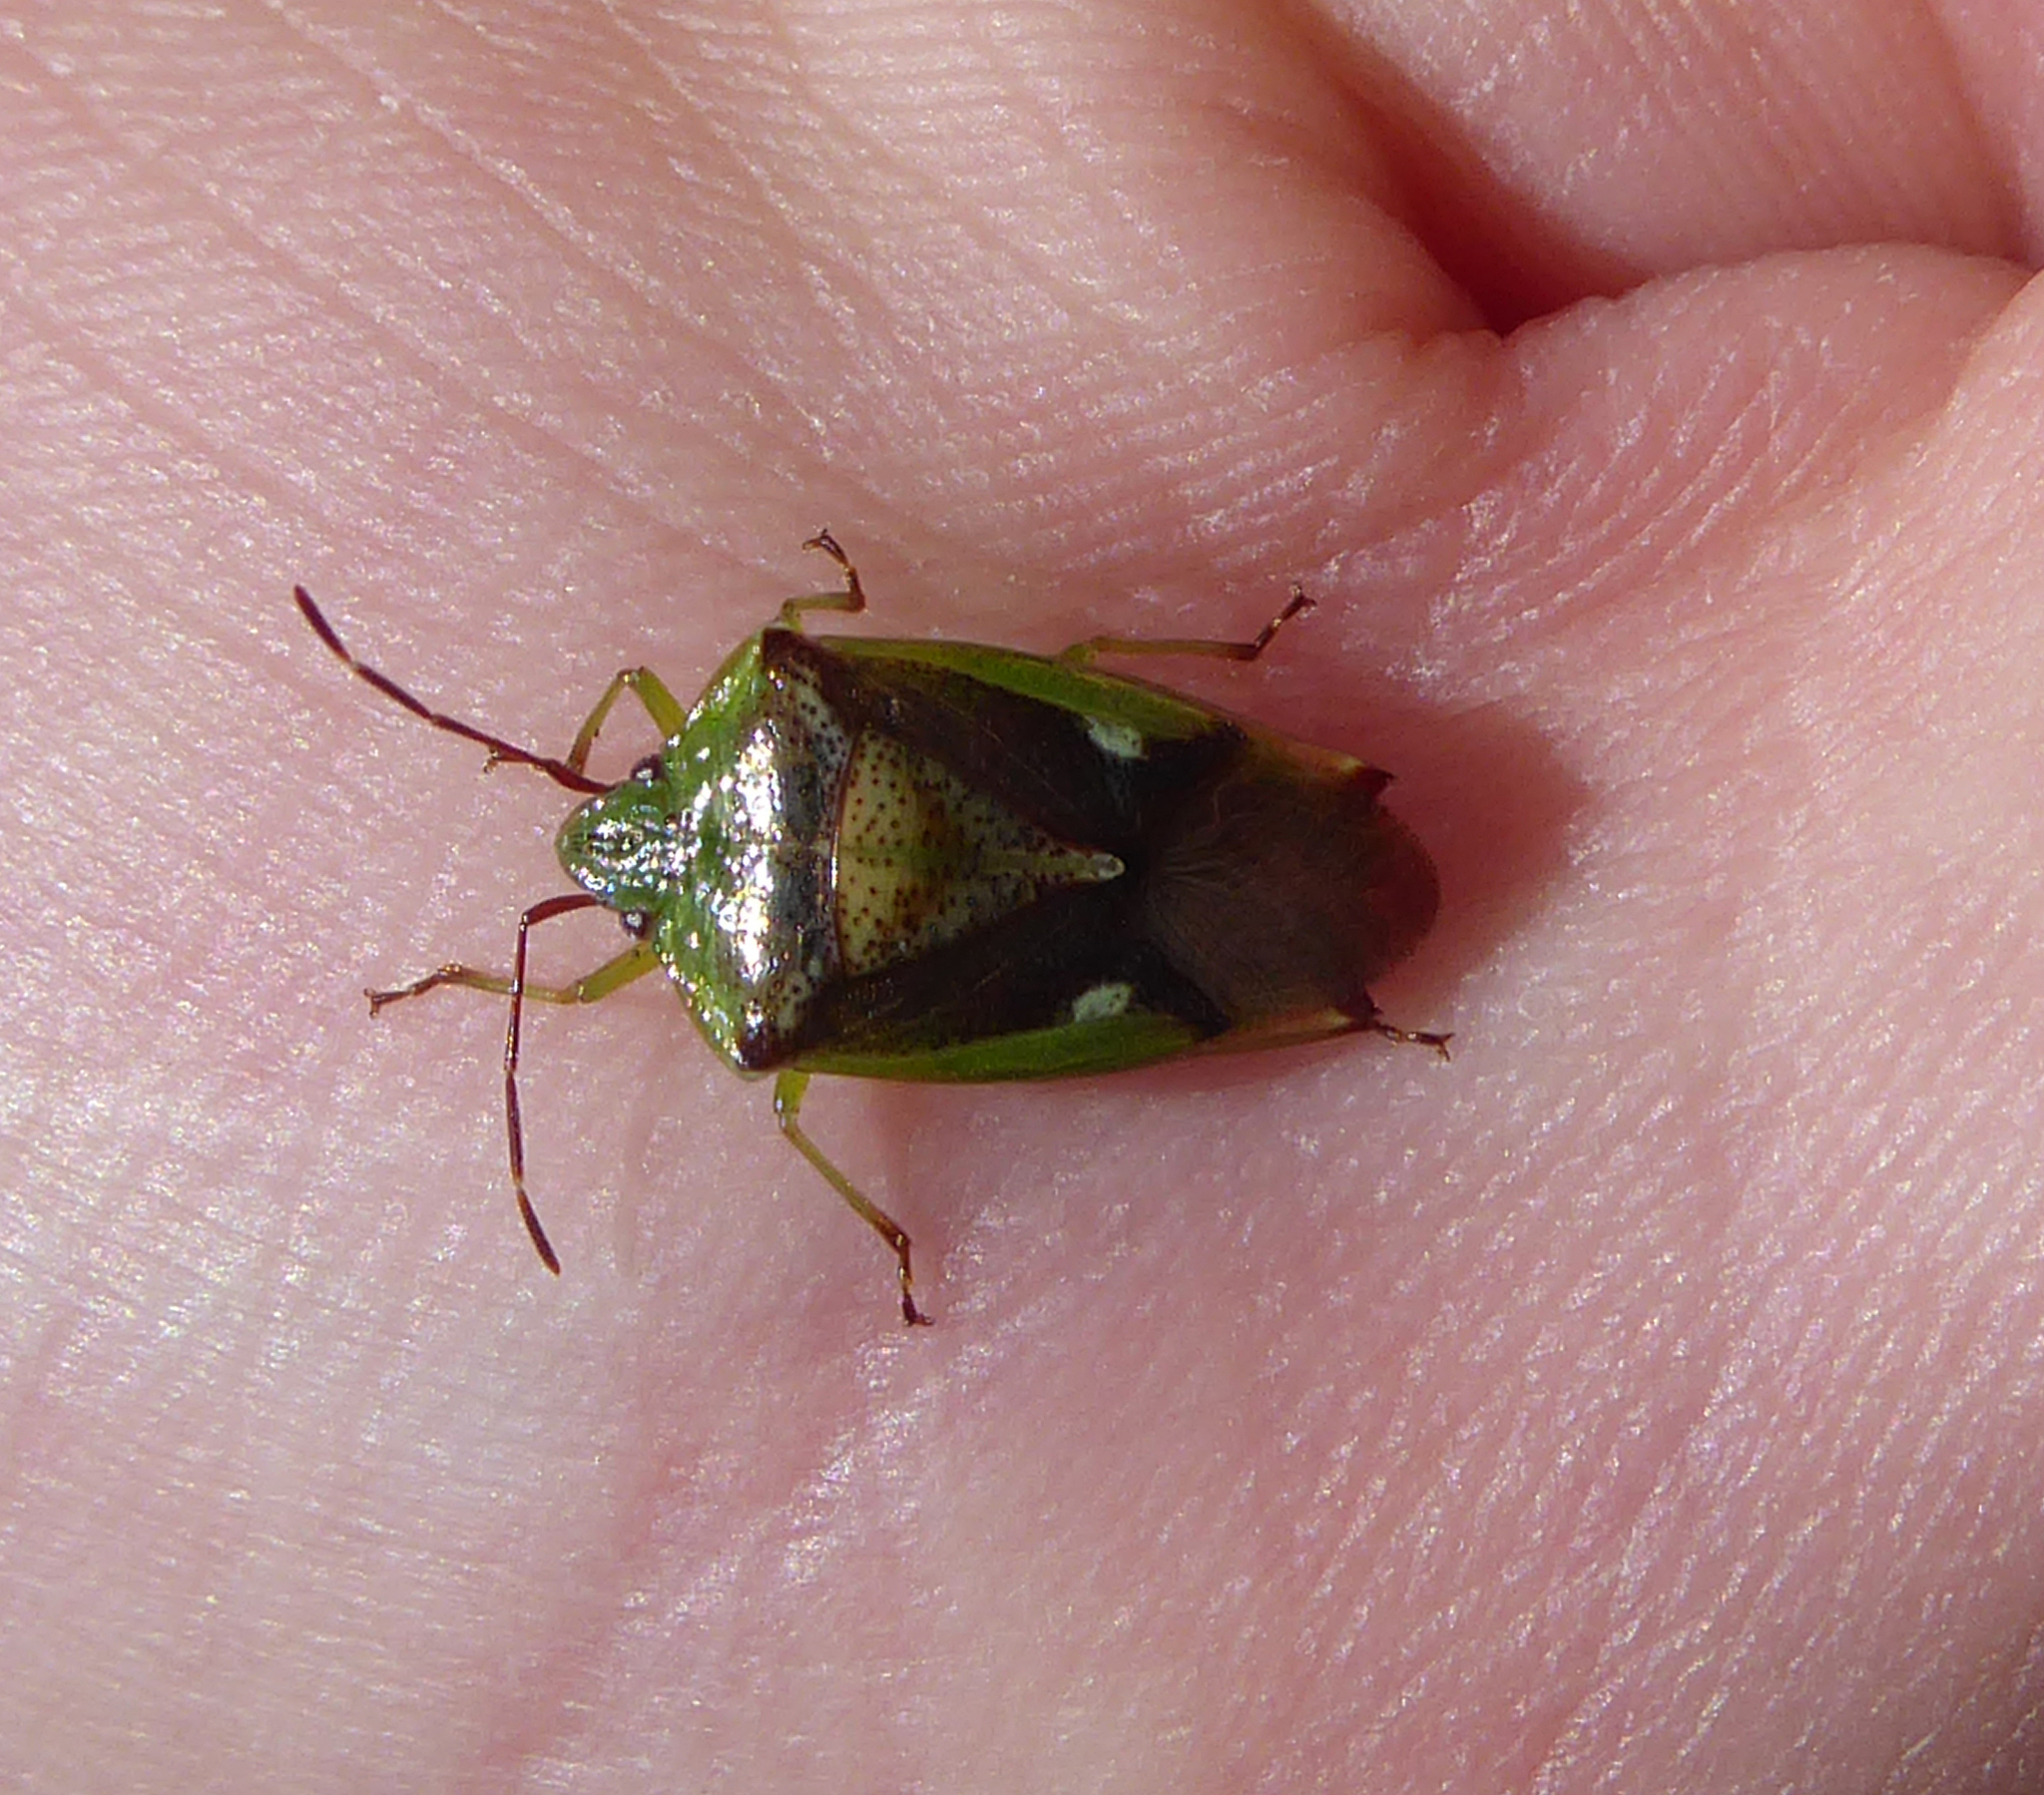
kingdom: Animalia
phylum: Arthropoda
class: Insecta
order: Hemiptera
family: Acanthosomatidae
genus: Oncacontias
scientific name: Oncacontias vittatus
